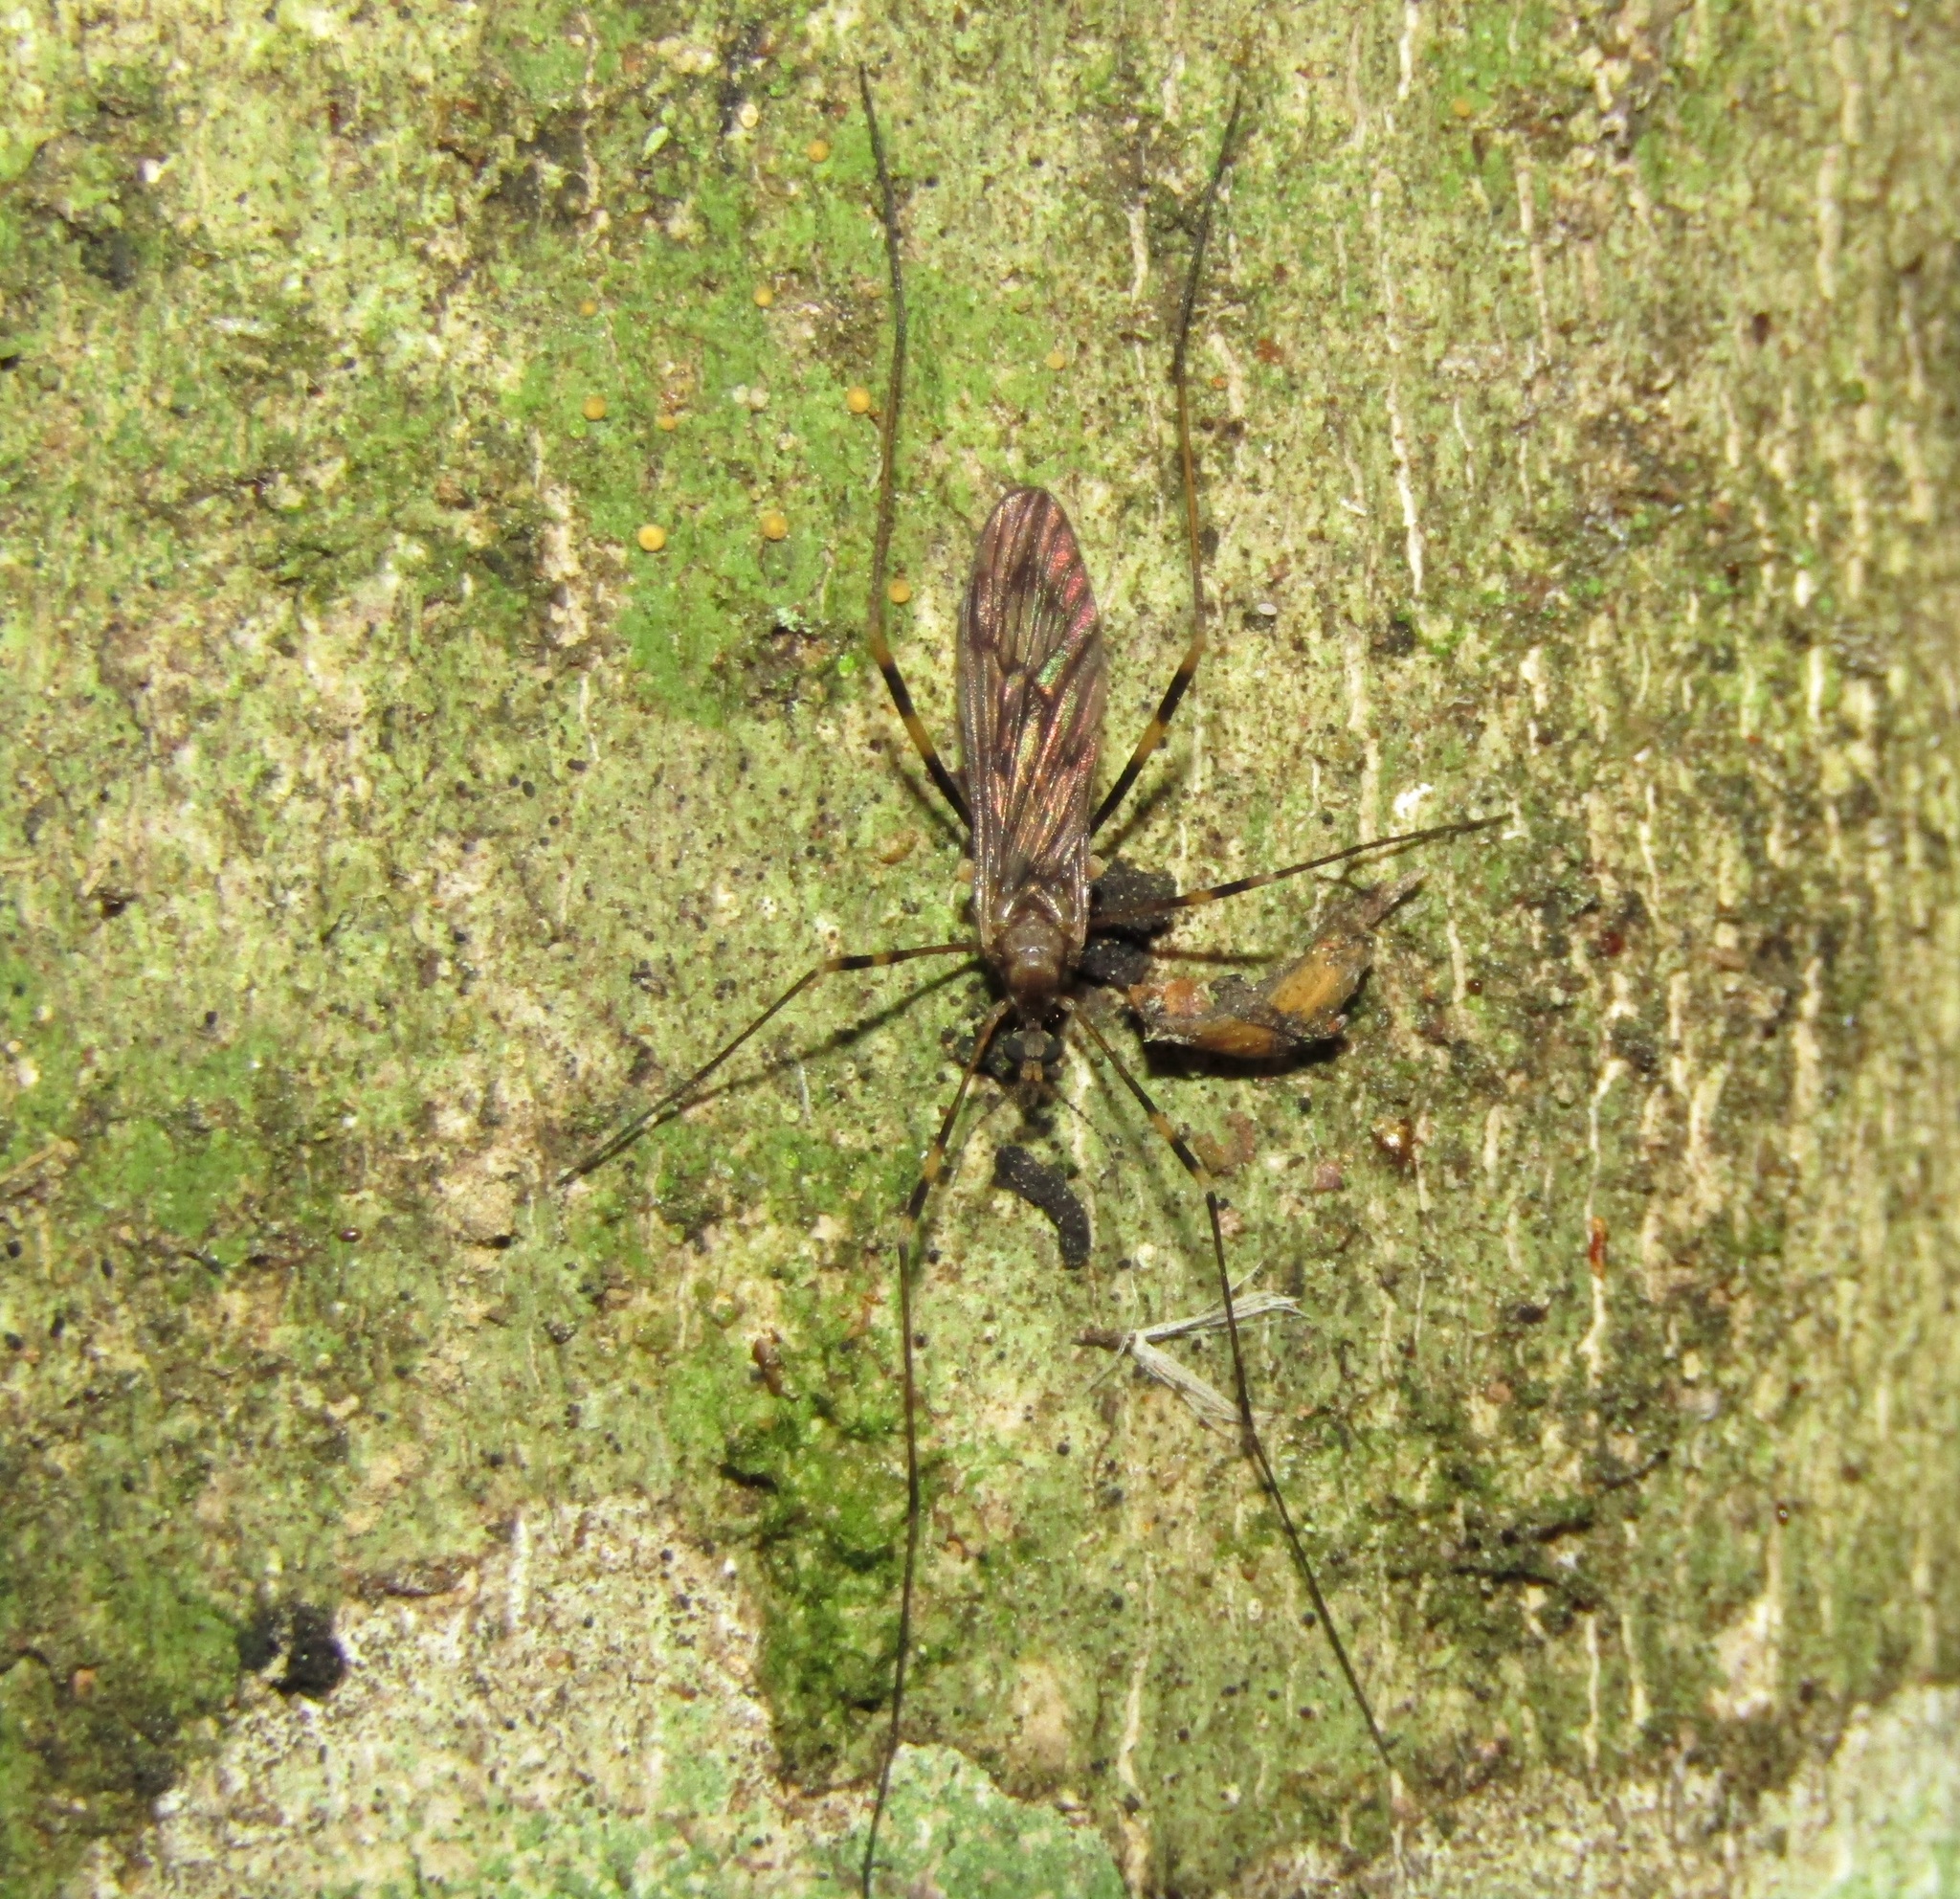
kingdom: Animalia
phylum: Arthropoda
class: Insecta
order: Diptera
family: Limoniidae
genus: Amphineurus
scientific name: Amphineurus fatuus
